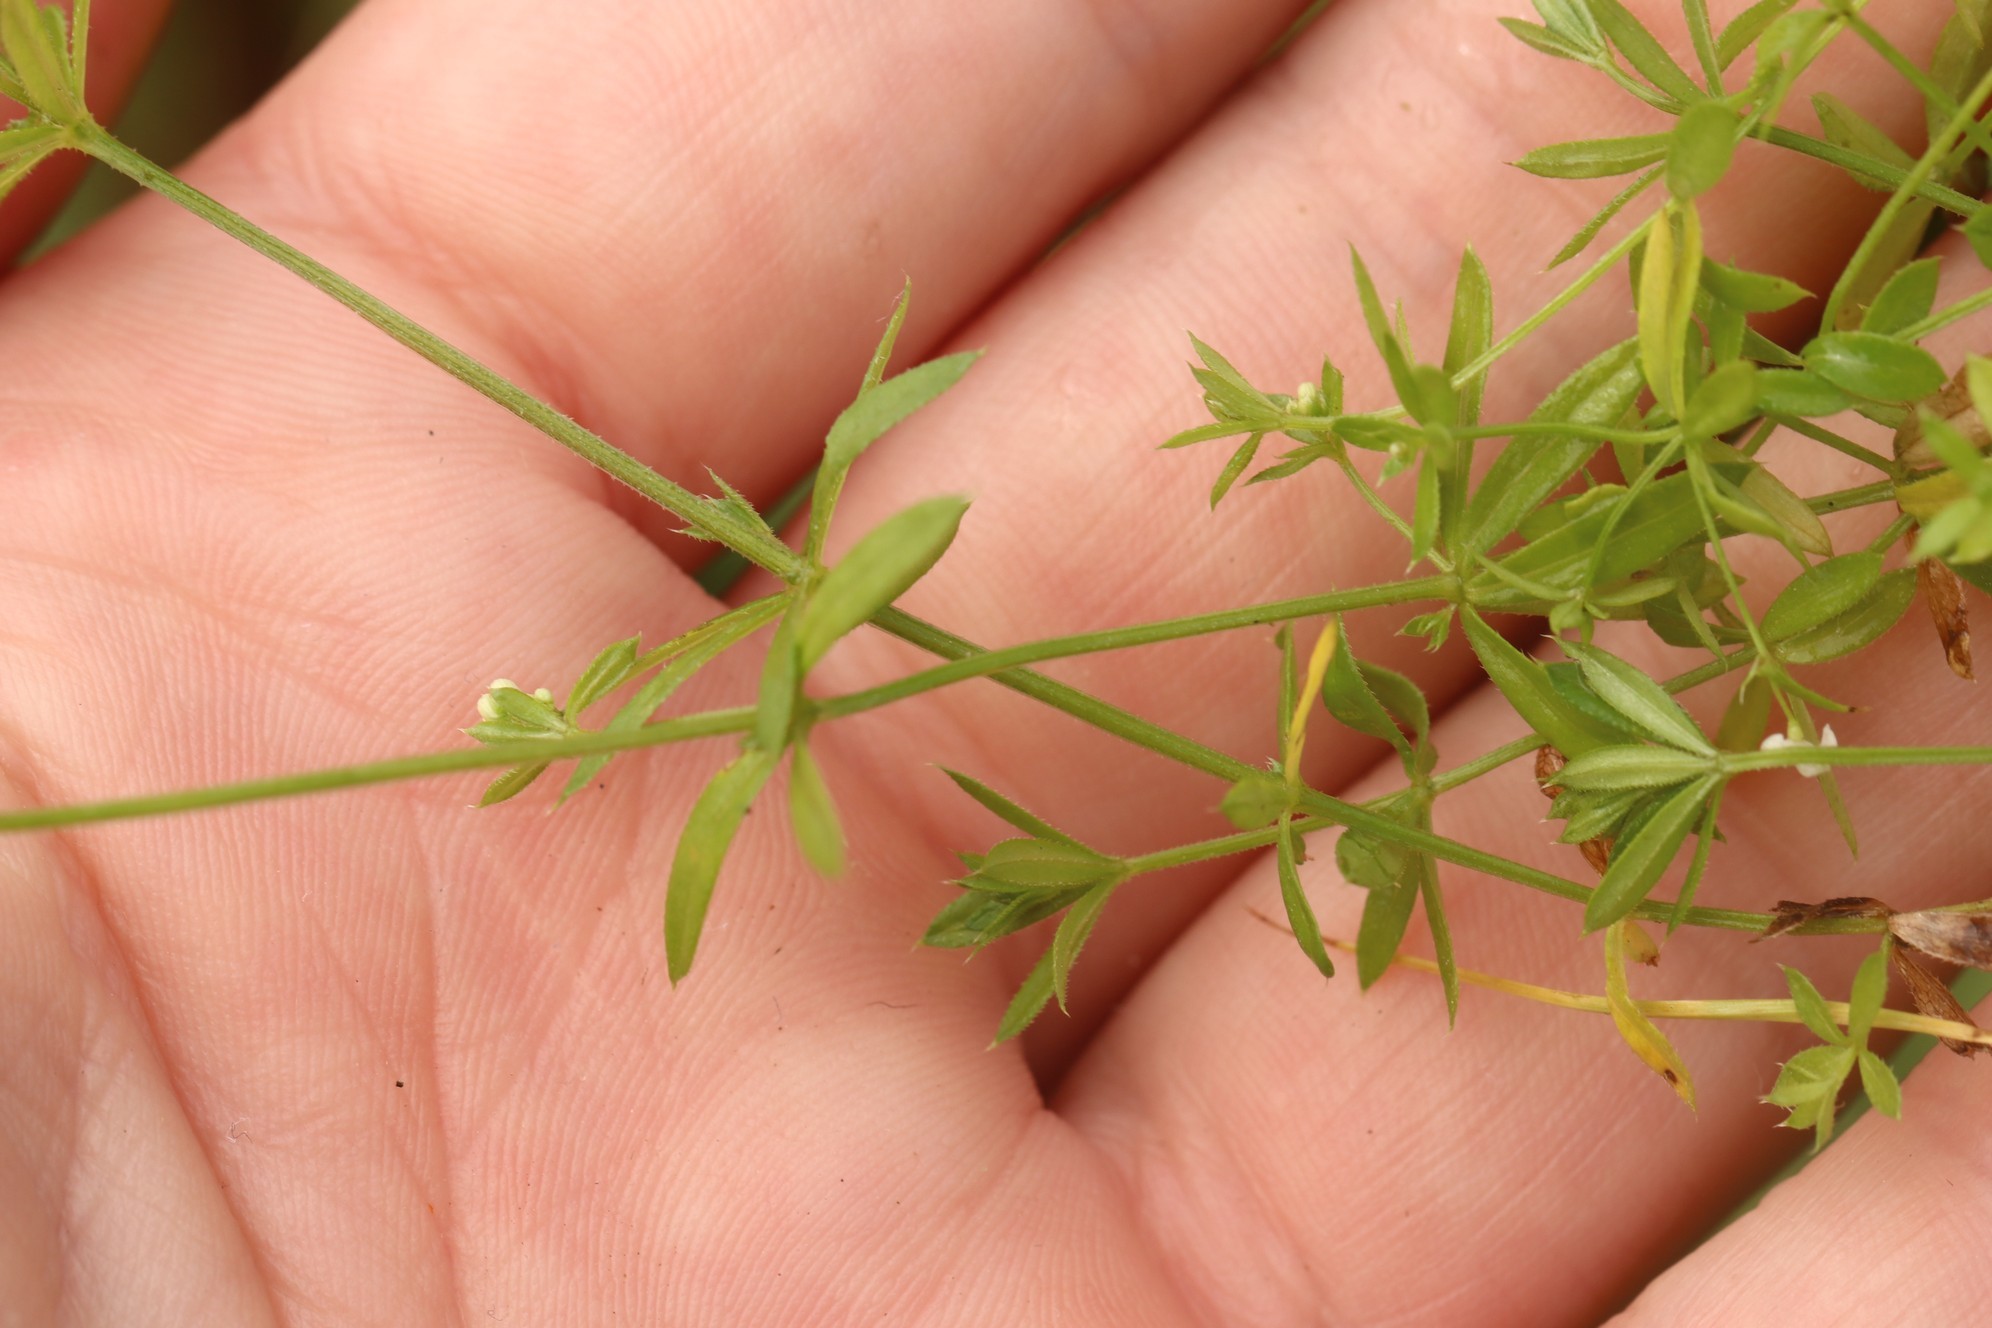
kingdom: Plantae
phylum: Tracheophyta
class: Magnoliopsida
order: Gentianales
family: Rubiaceae
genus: Galium
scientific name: Galium uliginosum
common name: Fen bedstraw
